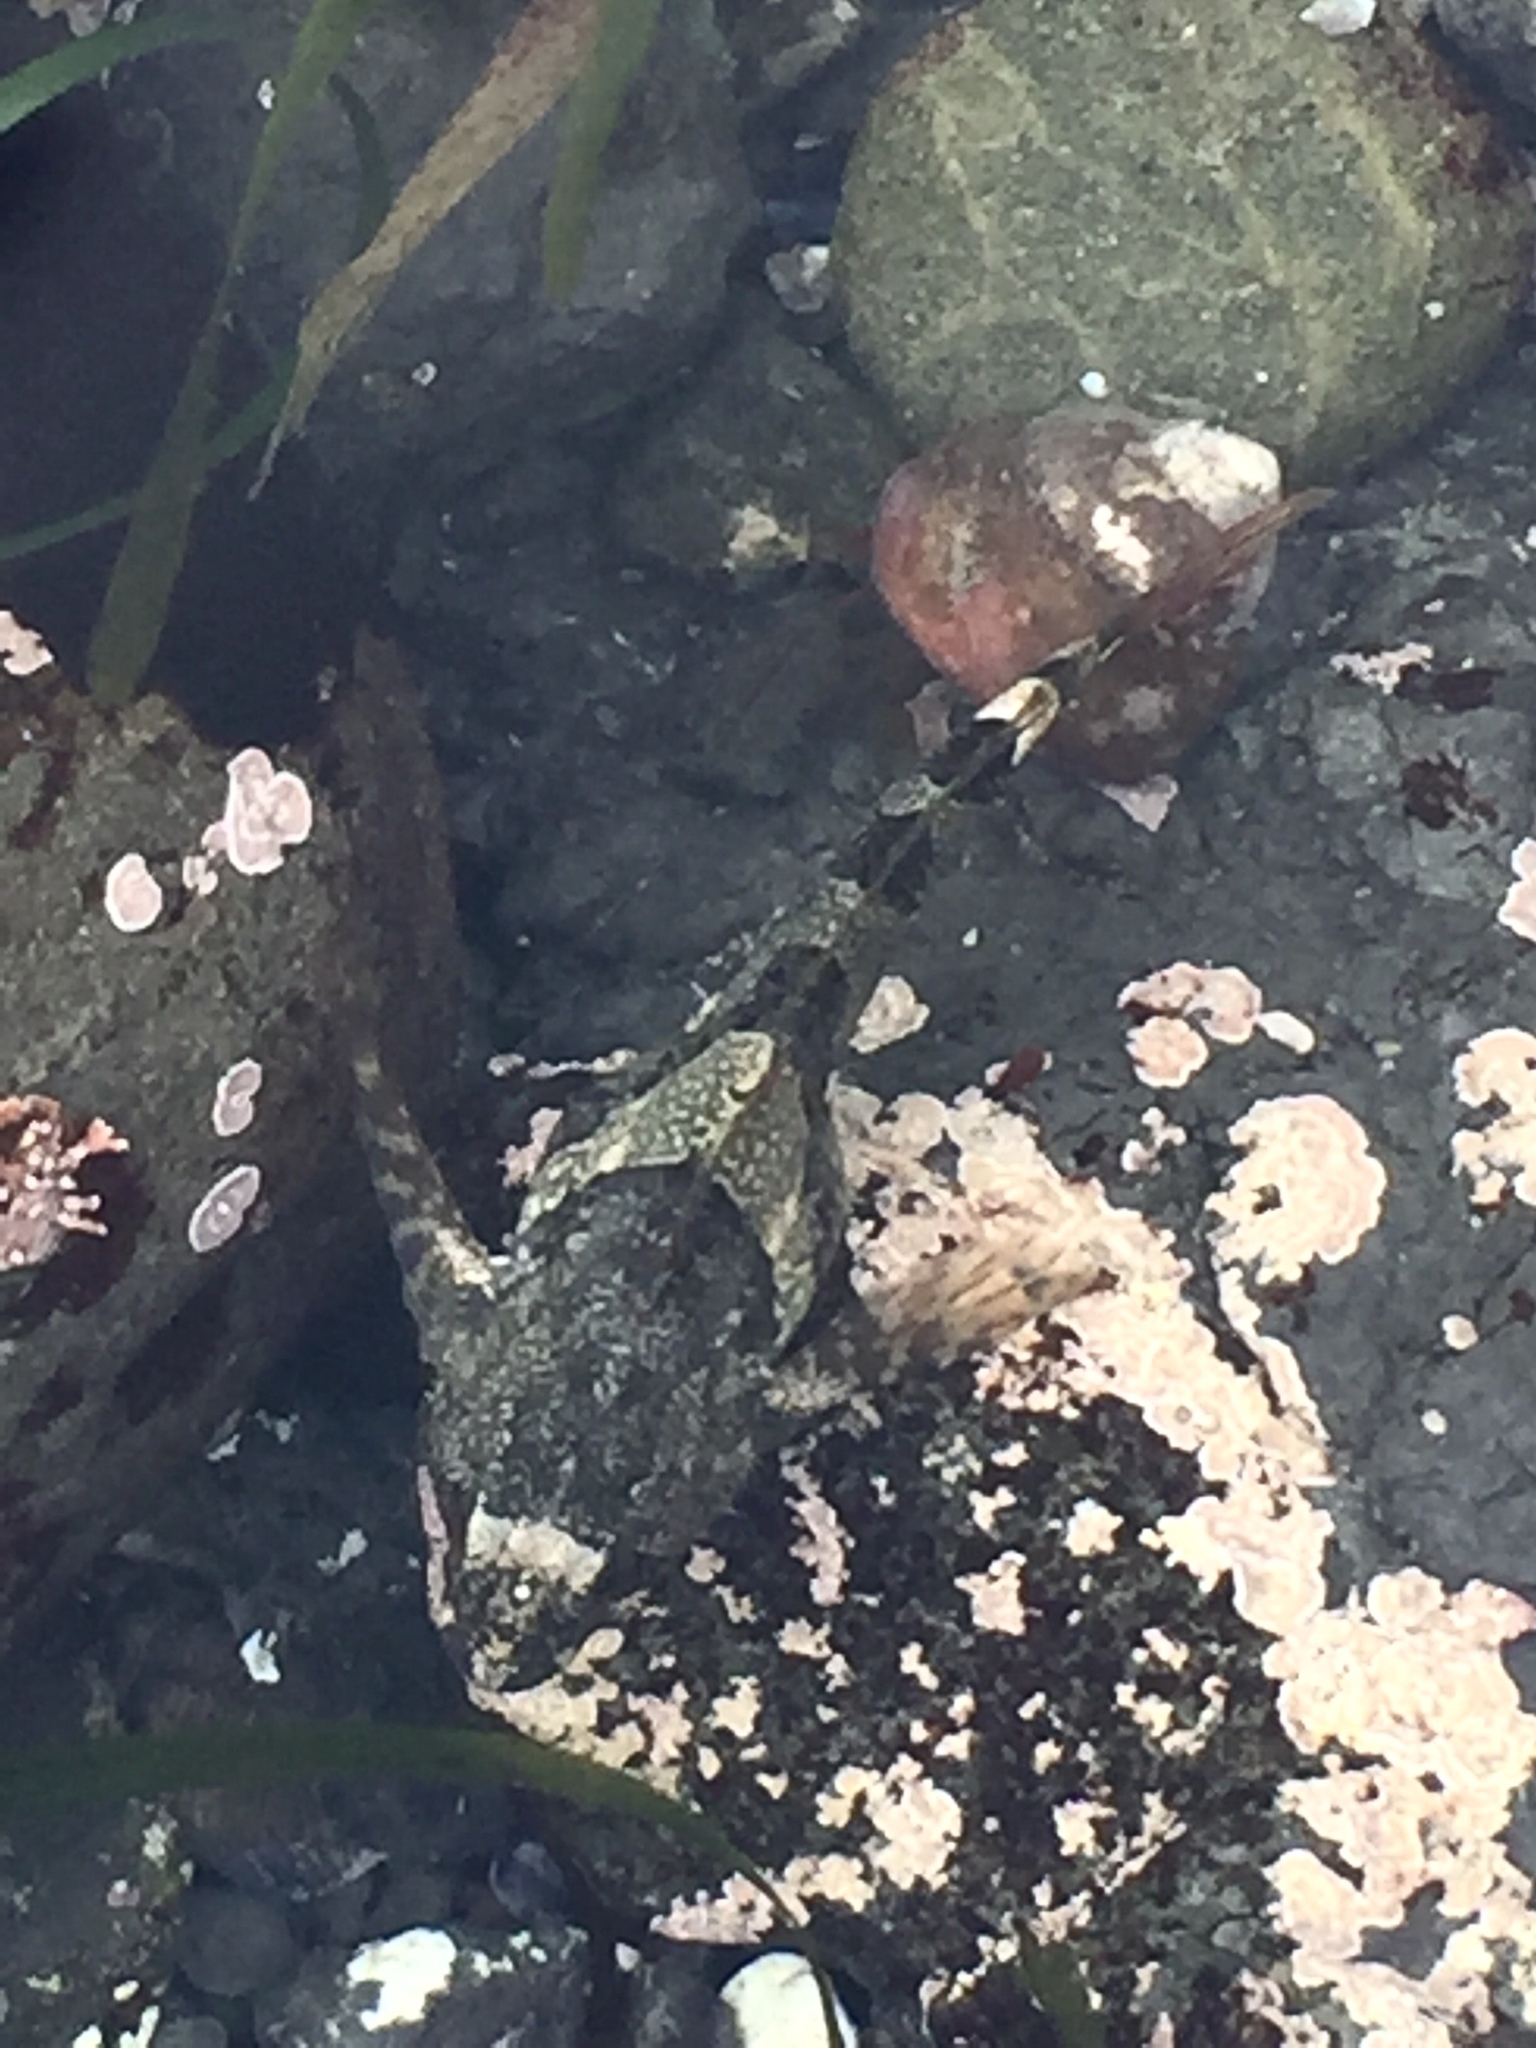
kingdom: Animalia
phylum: Chordata
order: Scorpaeniformes
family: Cottidae
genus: Oligocottus
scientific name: Oligocottus maculosus
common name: Tidepool sculpin
